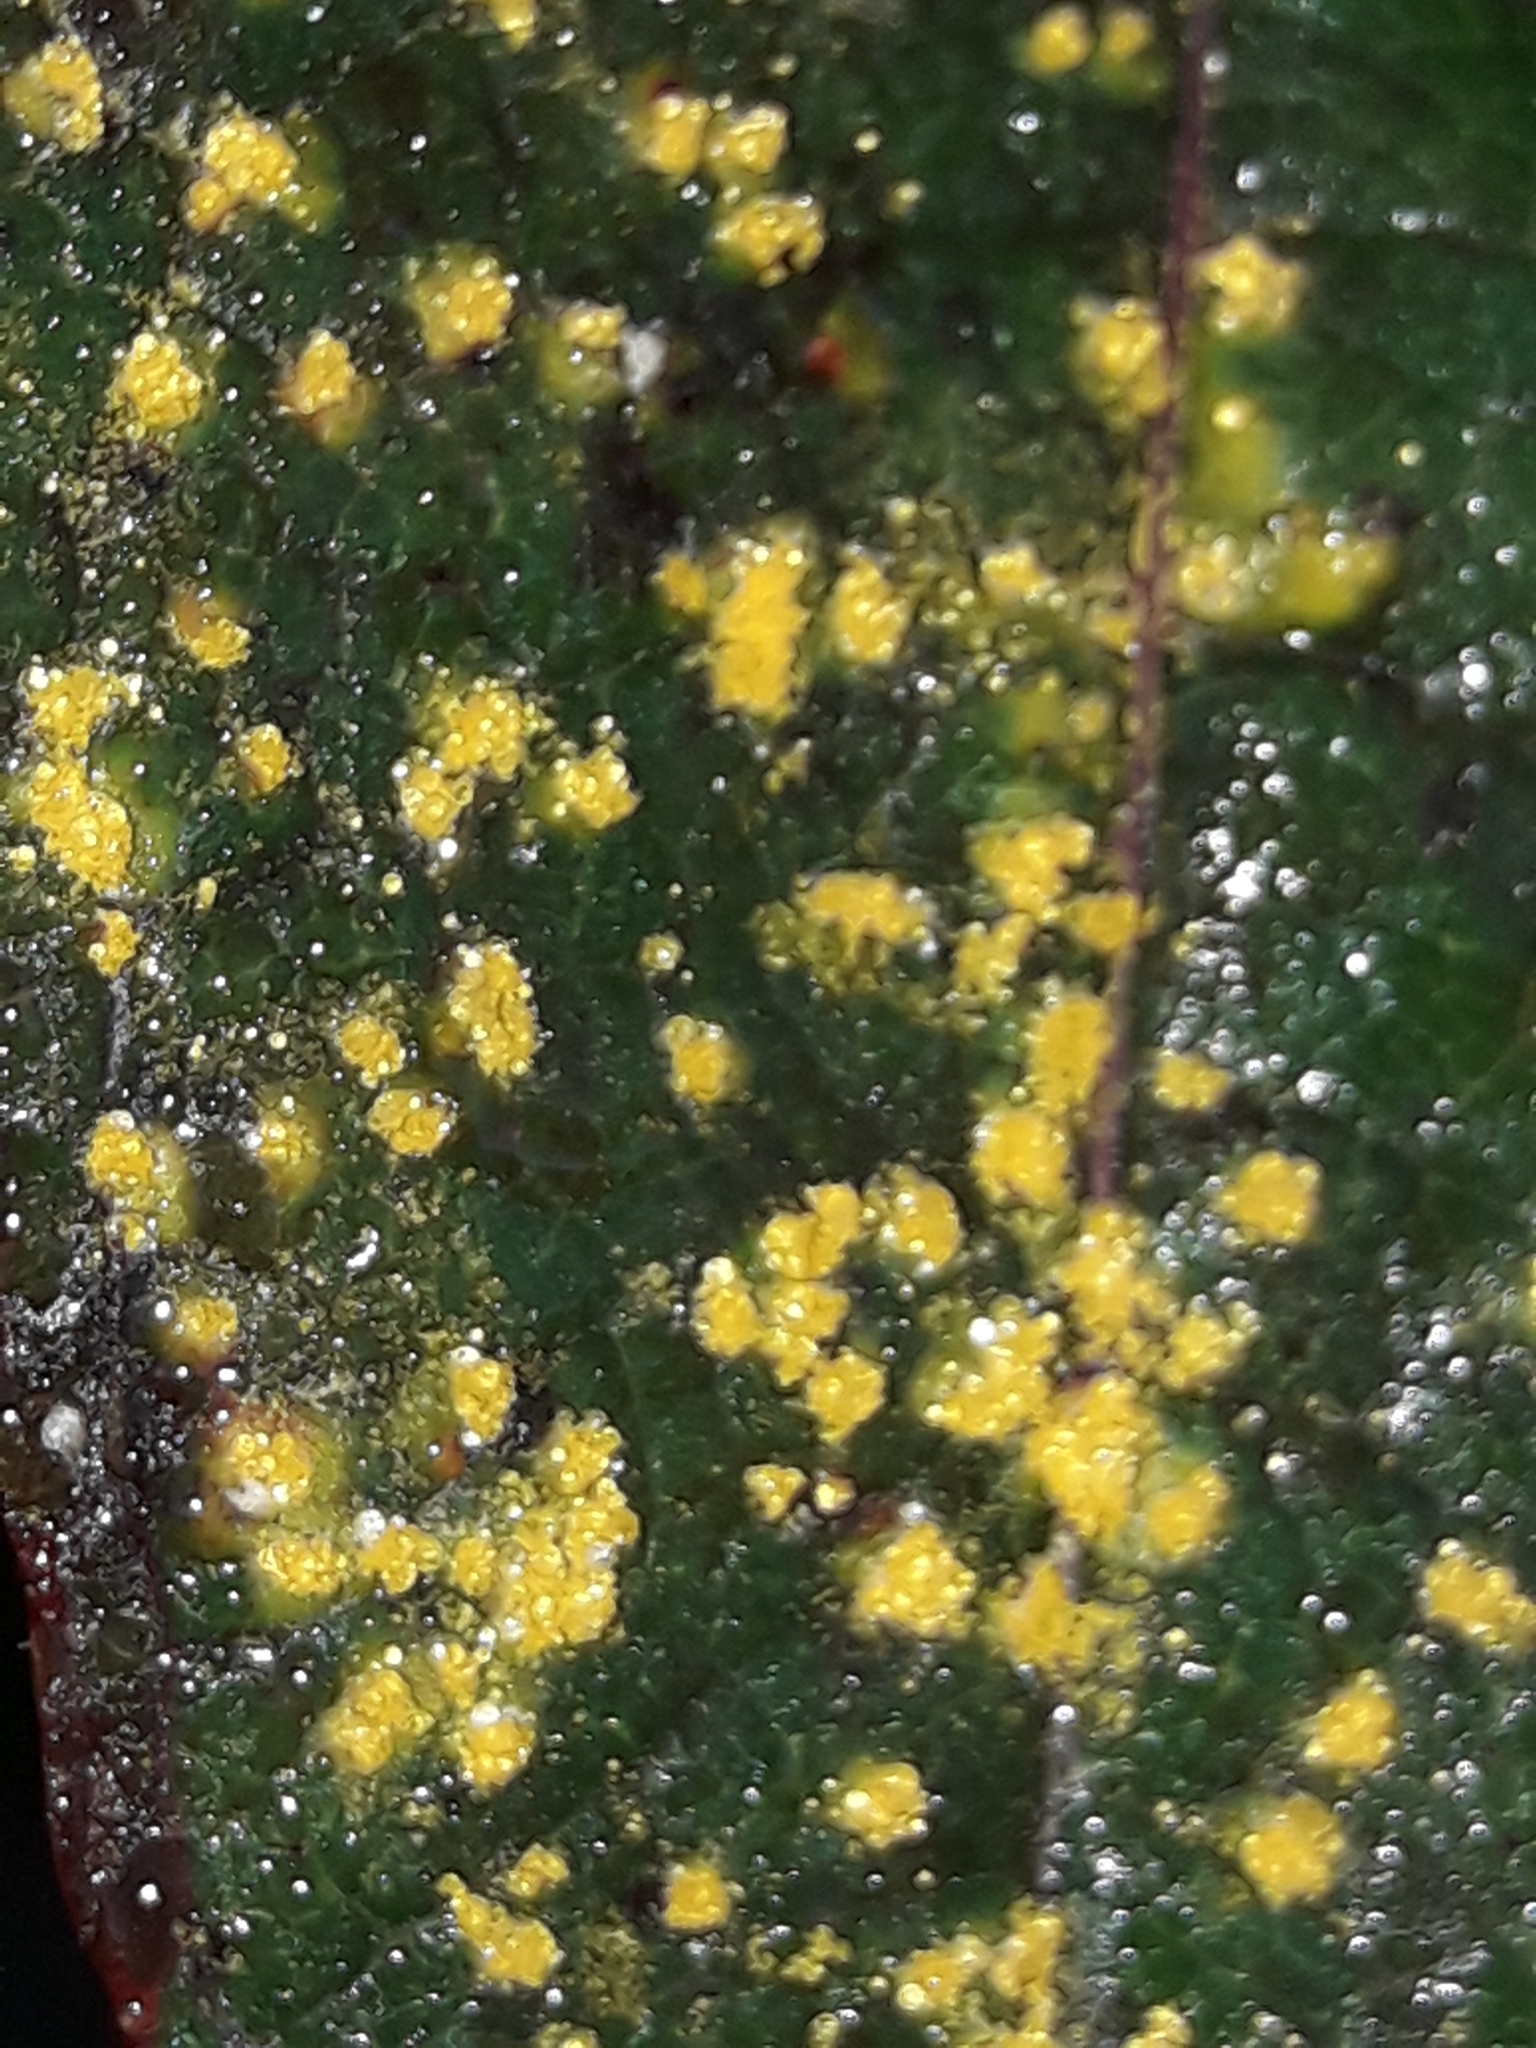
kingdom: Fungi
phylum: Basidiomycota
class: Pucciniomycetes
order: Pucciniales
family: Mikronegeriaceae
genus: Mikronegeria
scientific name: Mikronegeria fuchsiae
